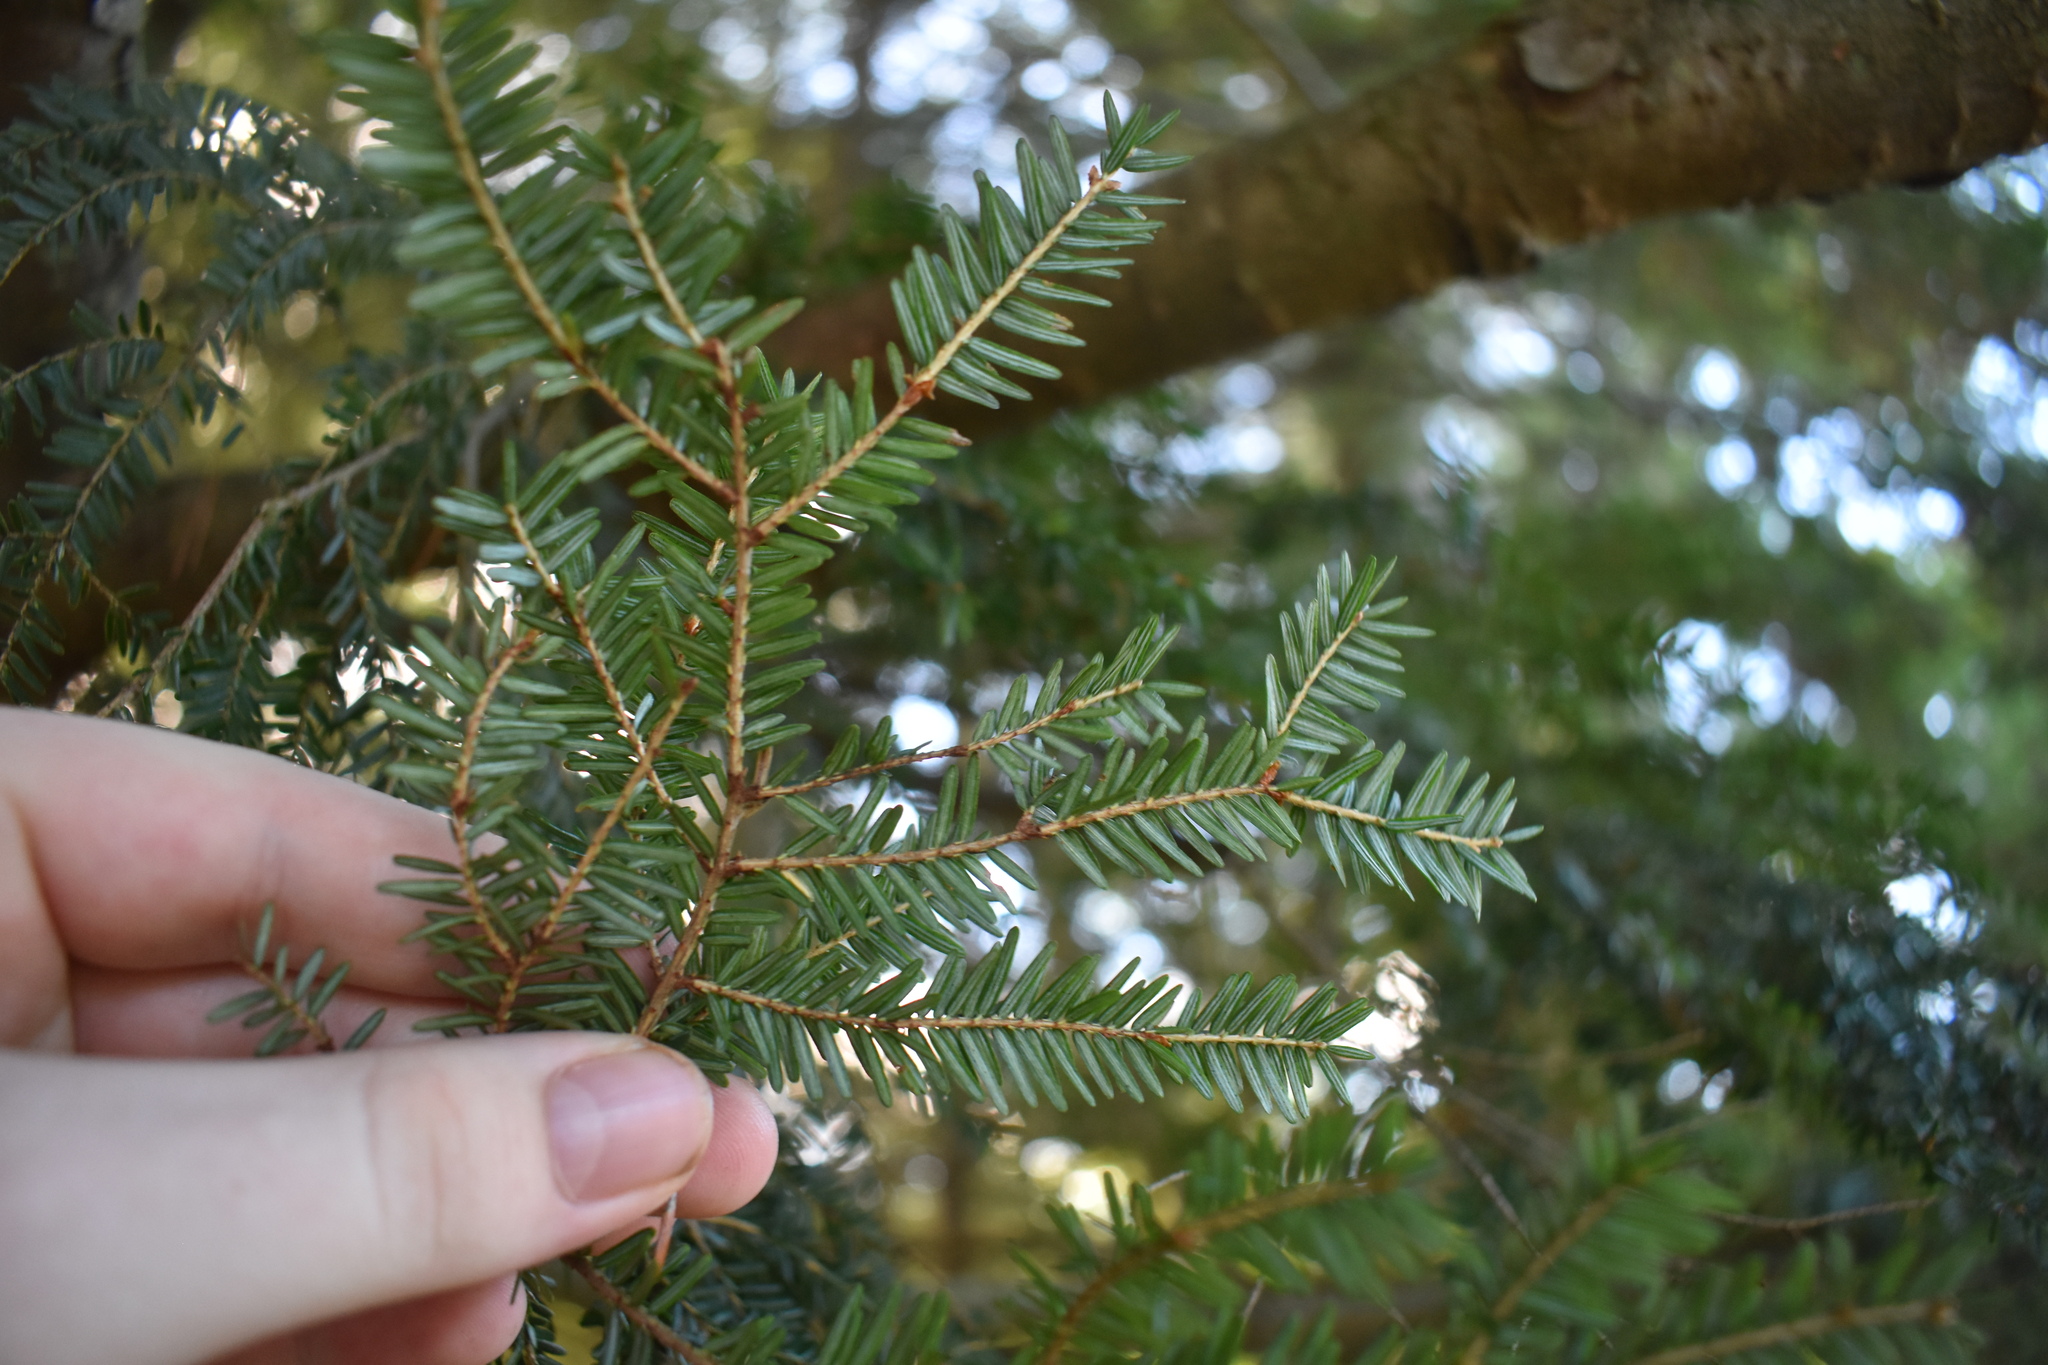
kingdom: Plantae
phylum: Tracheophyta
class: Pinopsida
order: Pinales
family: Pinaceae
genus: Tsuga
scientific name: Tsuga canadensis
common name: Eastern hemlock
